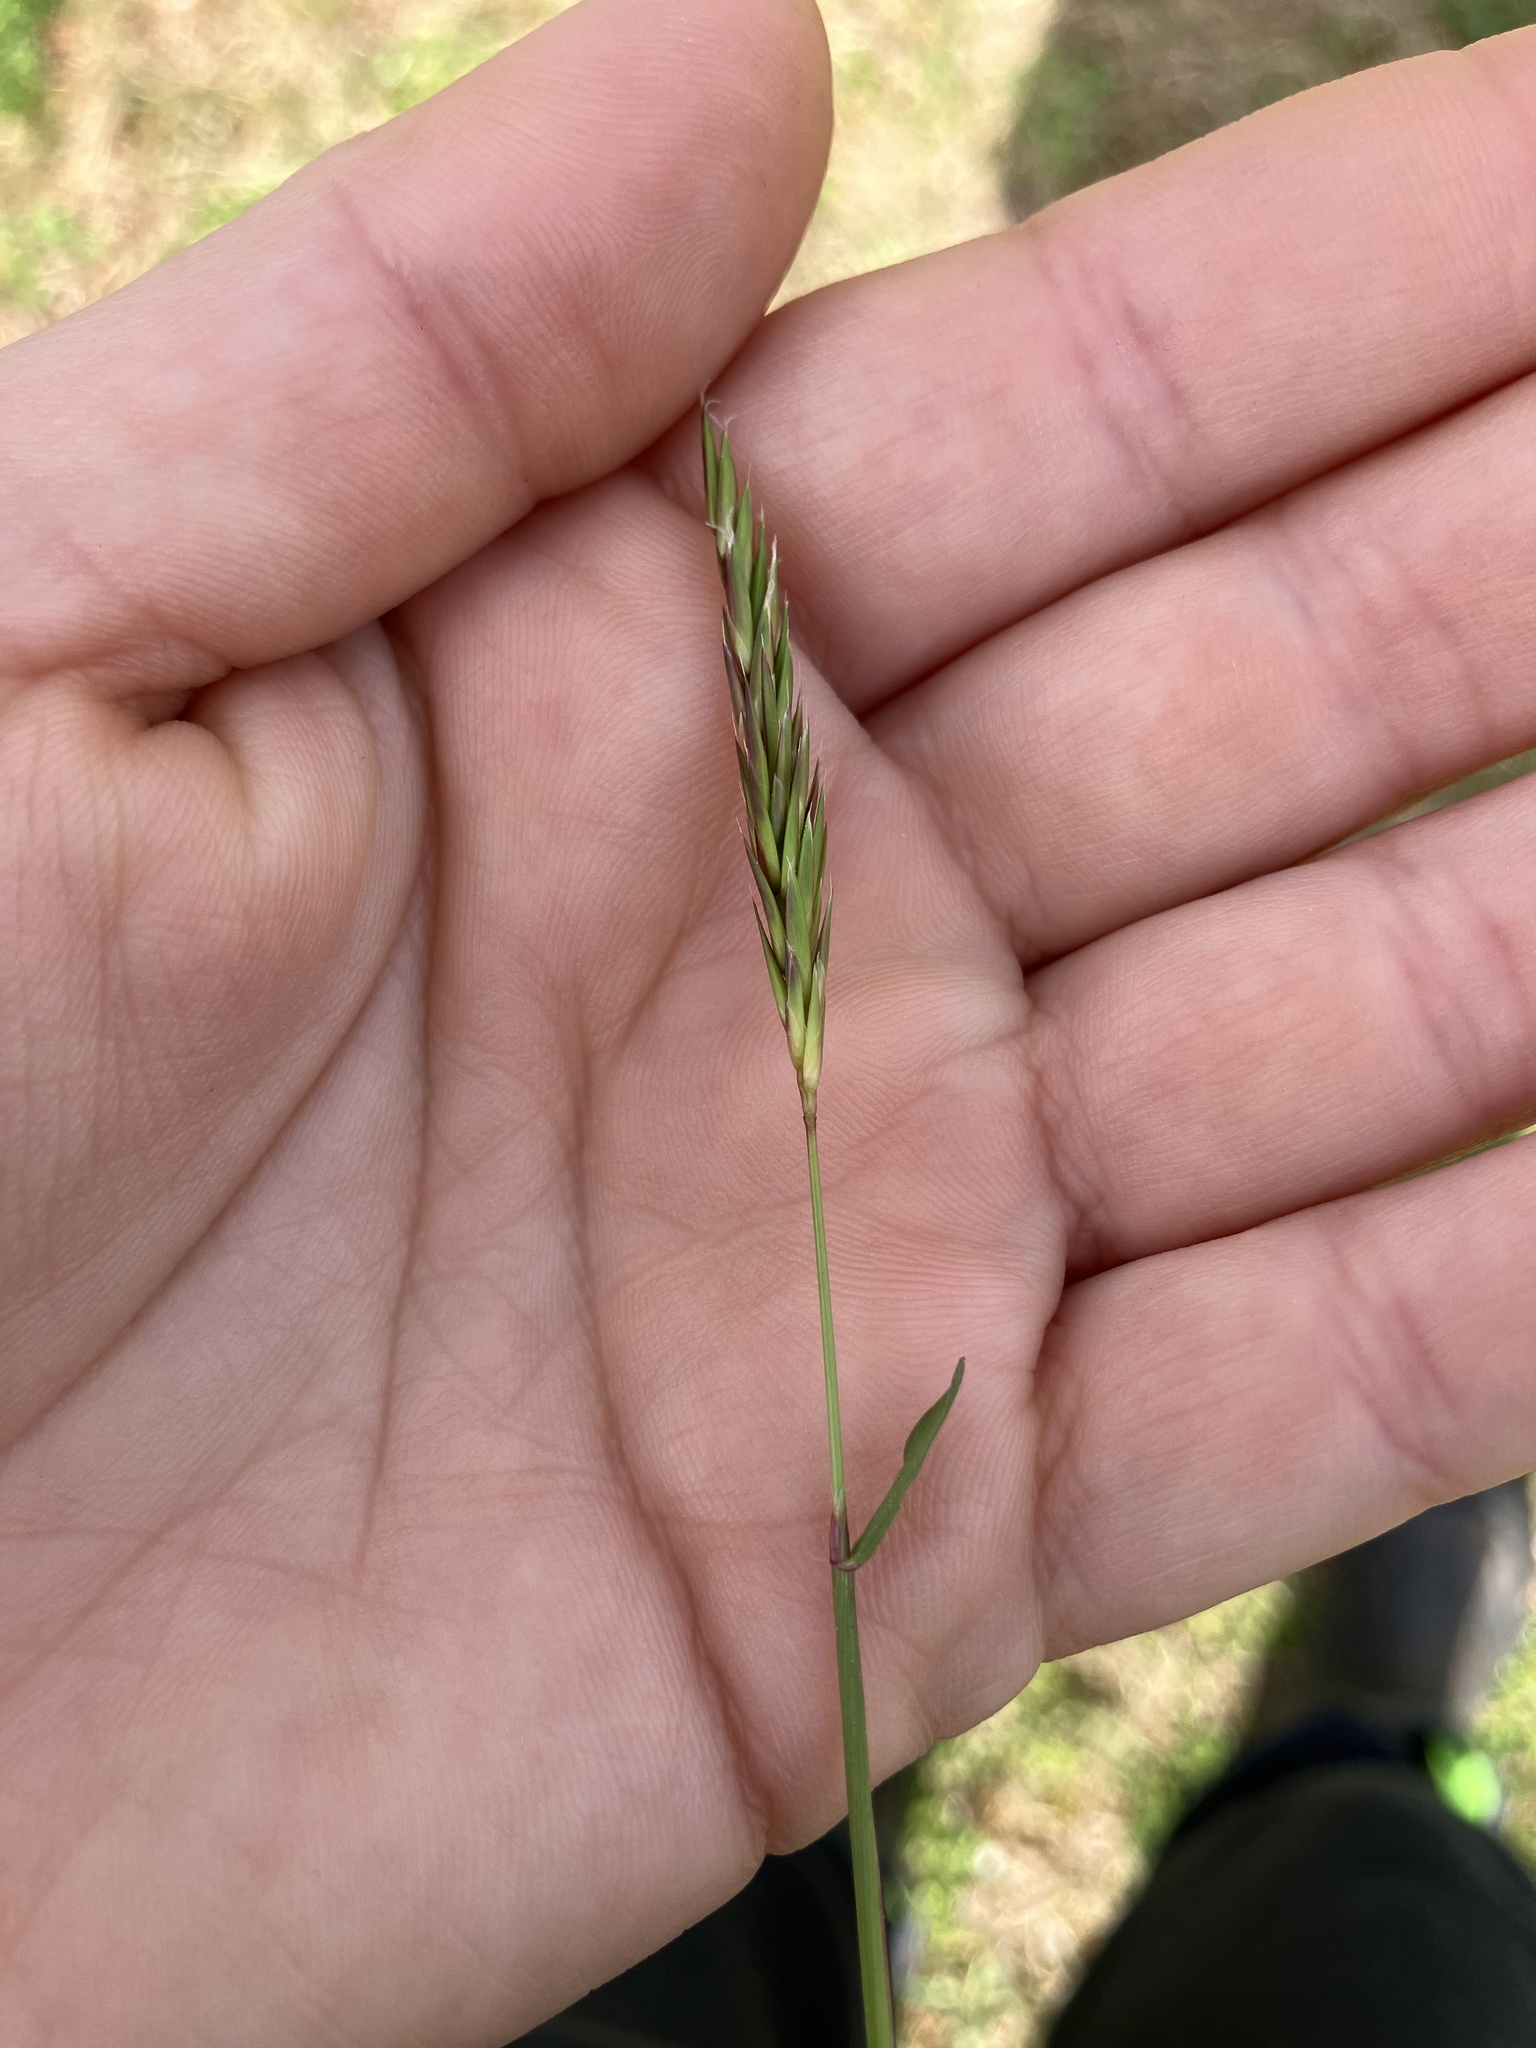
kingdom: Plantae
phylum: Tracheophyta
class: Liliopsida
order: Poales
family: Poaceae
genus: Anthoxanthum
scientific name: Anthoxanthum odoratum
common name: Sweet vernalgrass
